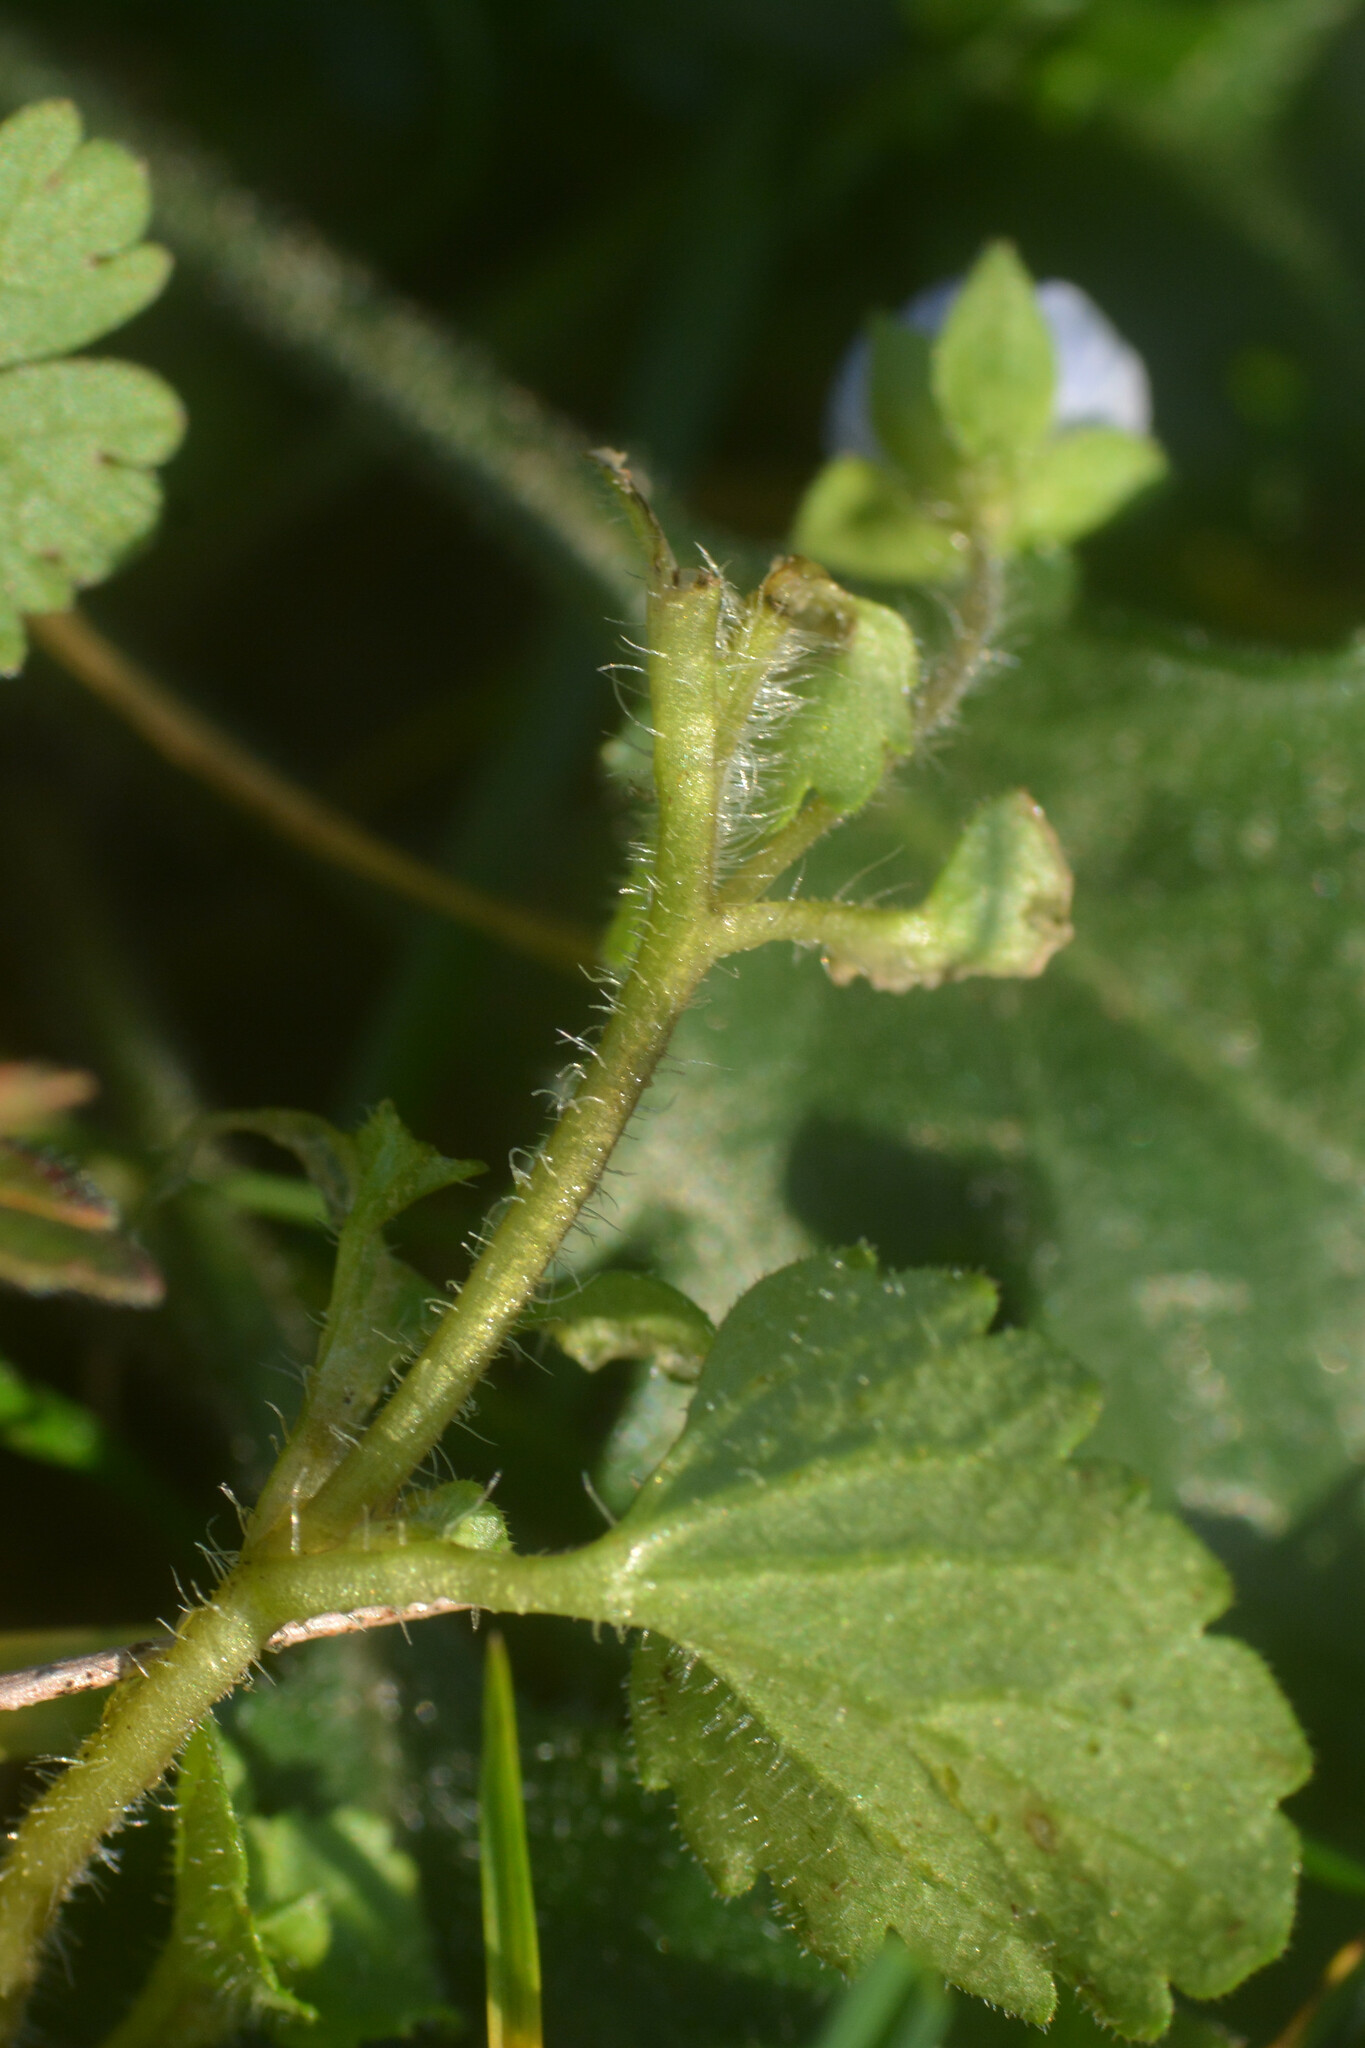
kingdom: Plantae
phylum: Tracheophyta
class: Magnoliopsida
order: Lamiales
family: Plantaginaceae
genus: Veronica
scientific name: Veronica persica
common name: Common field-speedwell
